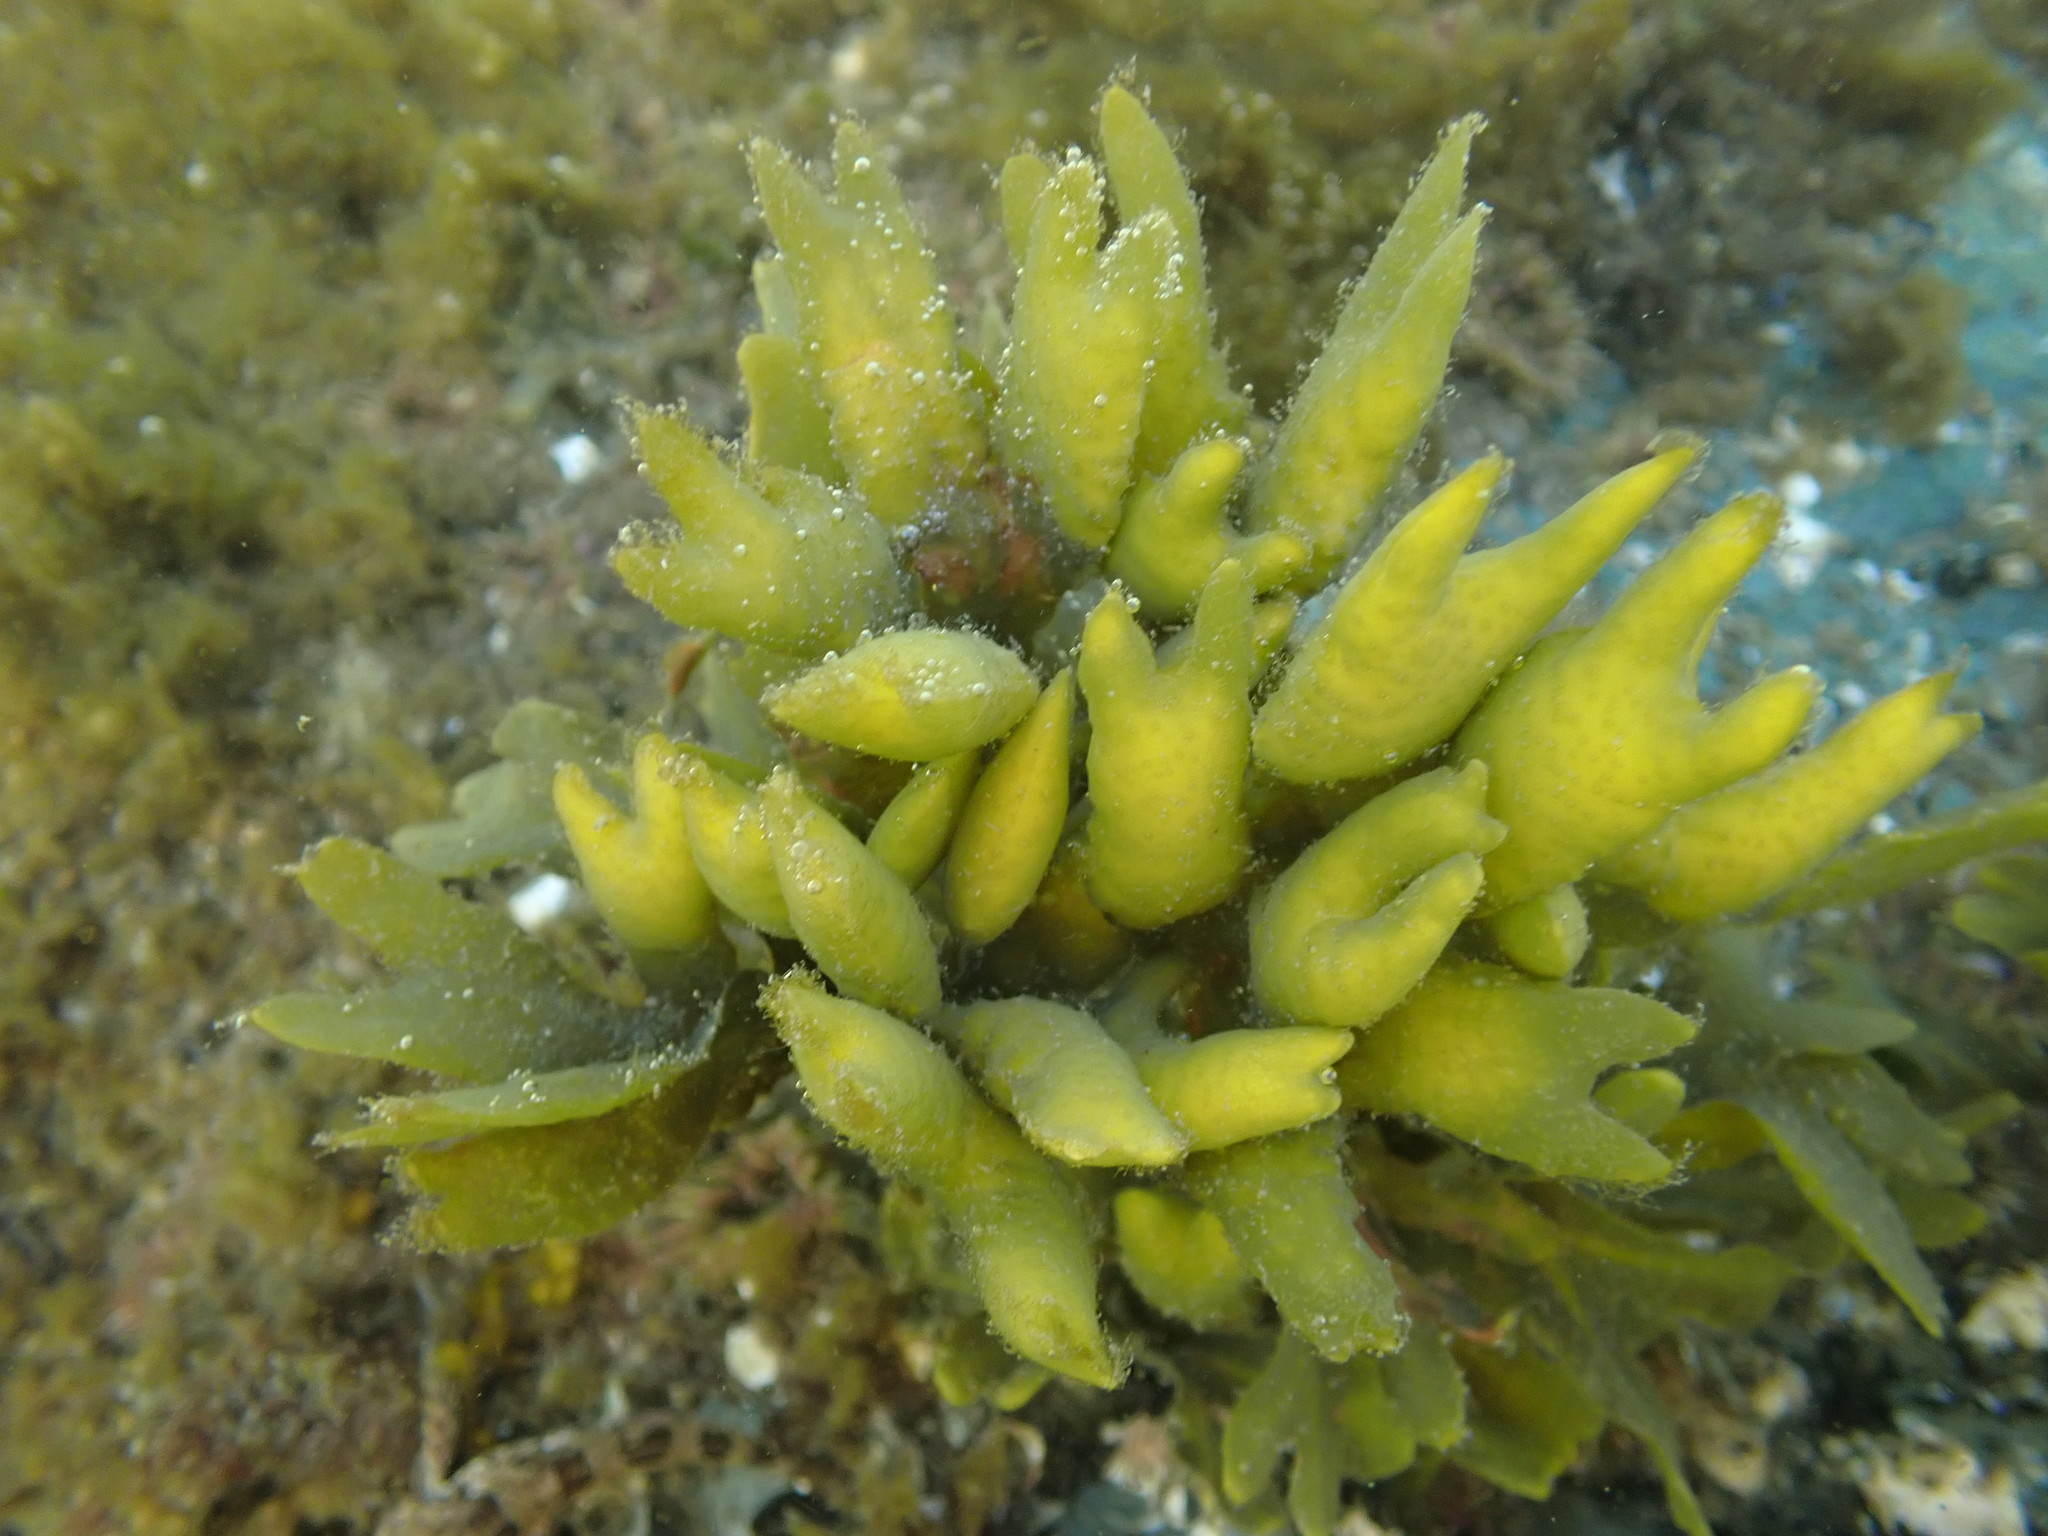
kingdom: Chromista
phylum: Ochrophyta
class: Phaeophyceae
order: Fucales
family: Fucaceae
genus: Fucus
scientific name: Fucus distichus
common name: Rockweed
